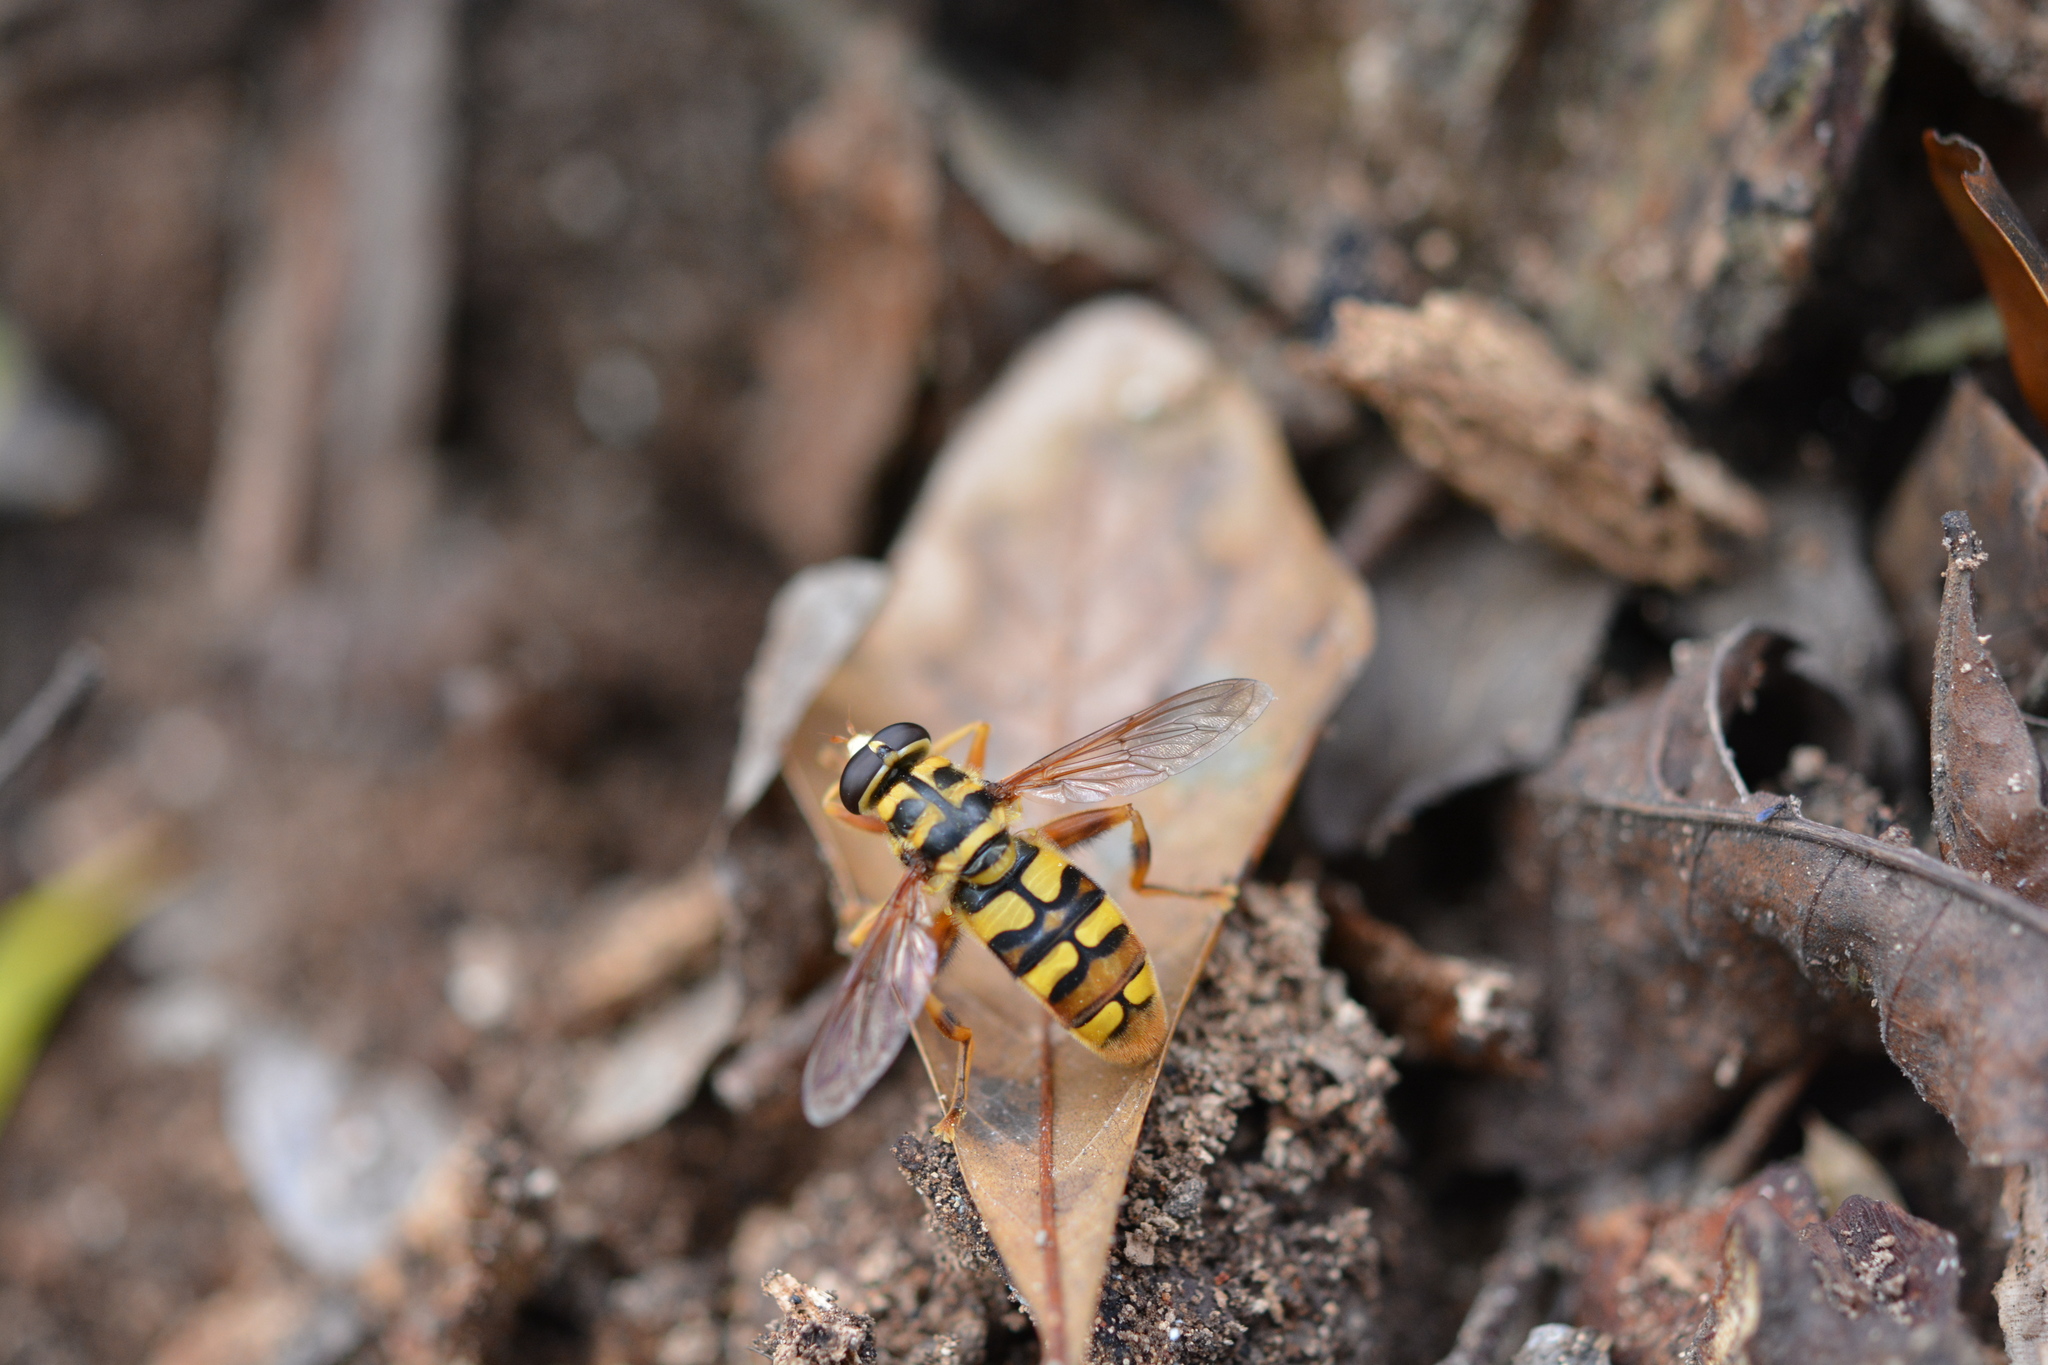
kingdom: Animalia
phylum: Arthropoda
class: Insecta
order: Diptera
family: Syrphidae
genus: Milesia
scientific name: Milesia virginiensis
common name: Virginia giant
